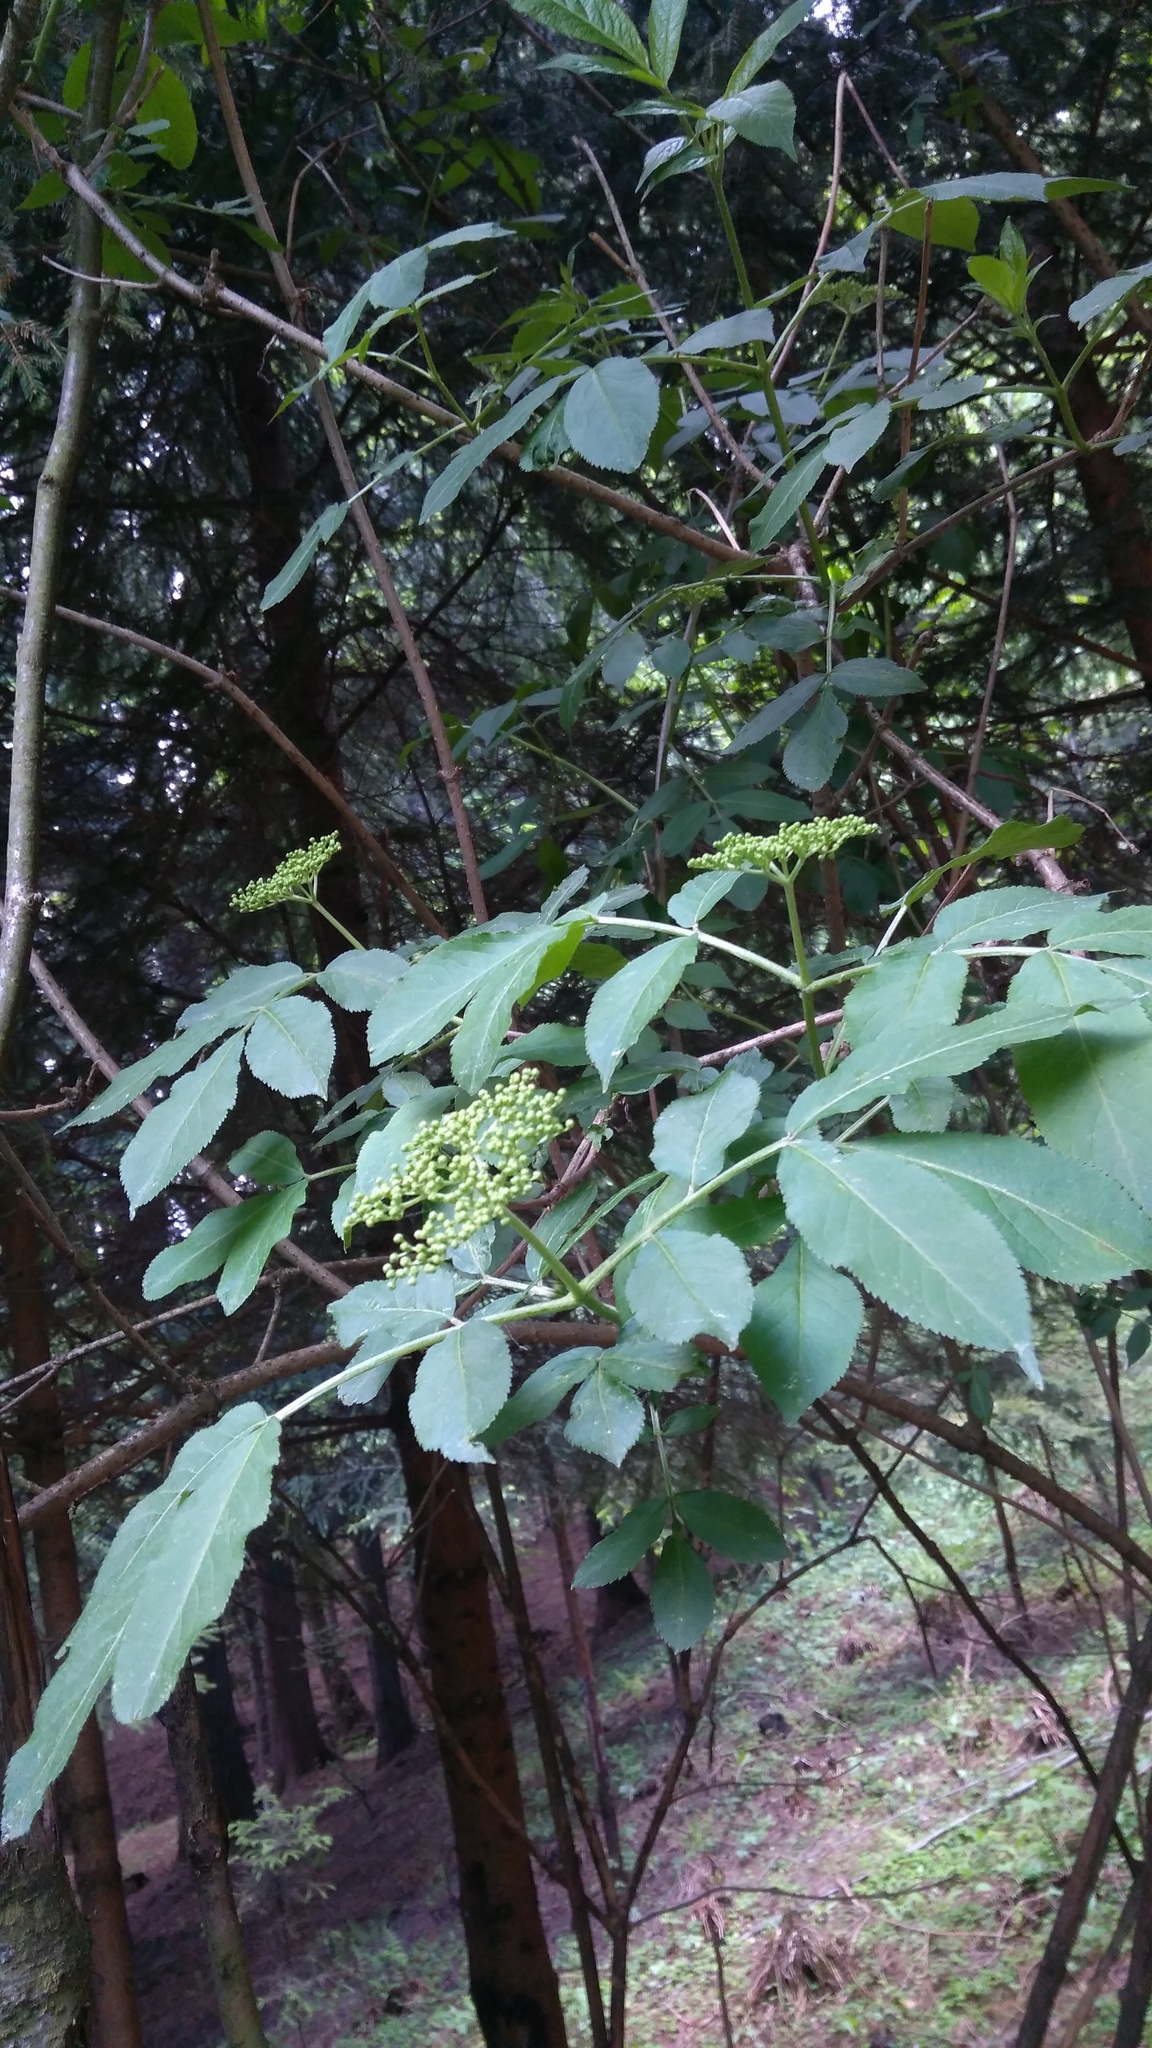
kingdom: Plantae
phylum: Tracheophyta
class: Magnoliopsida
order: Dipsacales
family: Viburnaceae
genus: Sambucus
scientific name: Sambucus nigra
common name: Elder
